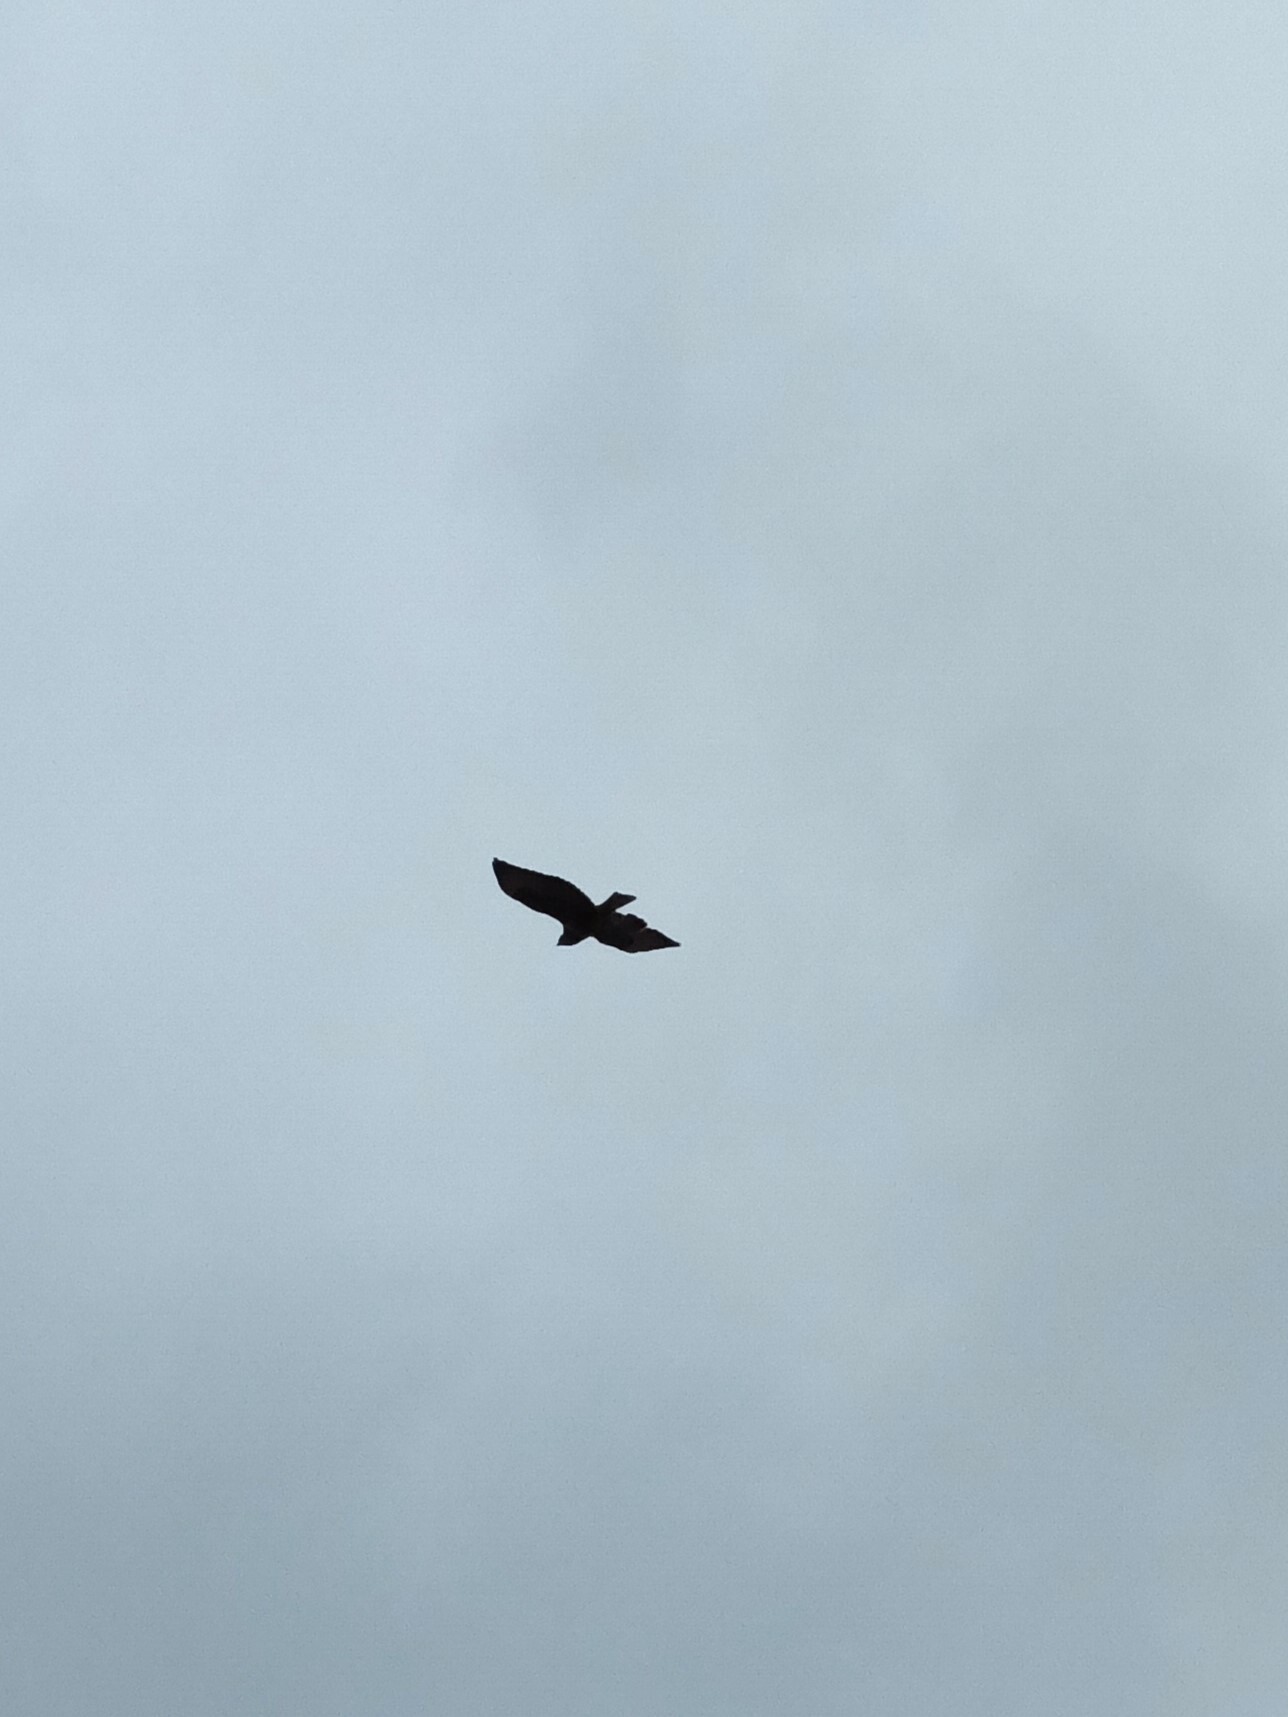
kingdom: Animalia
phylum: Chordata
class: Aves
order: Accipitriformes
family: Accipitridae
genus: Buteo
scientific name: Buteo buteo
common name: Common buzzard
